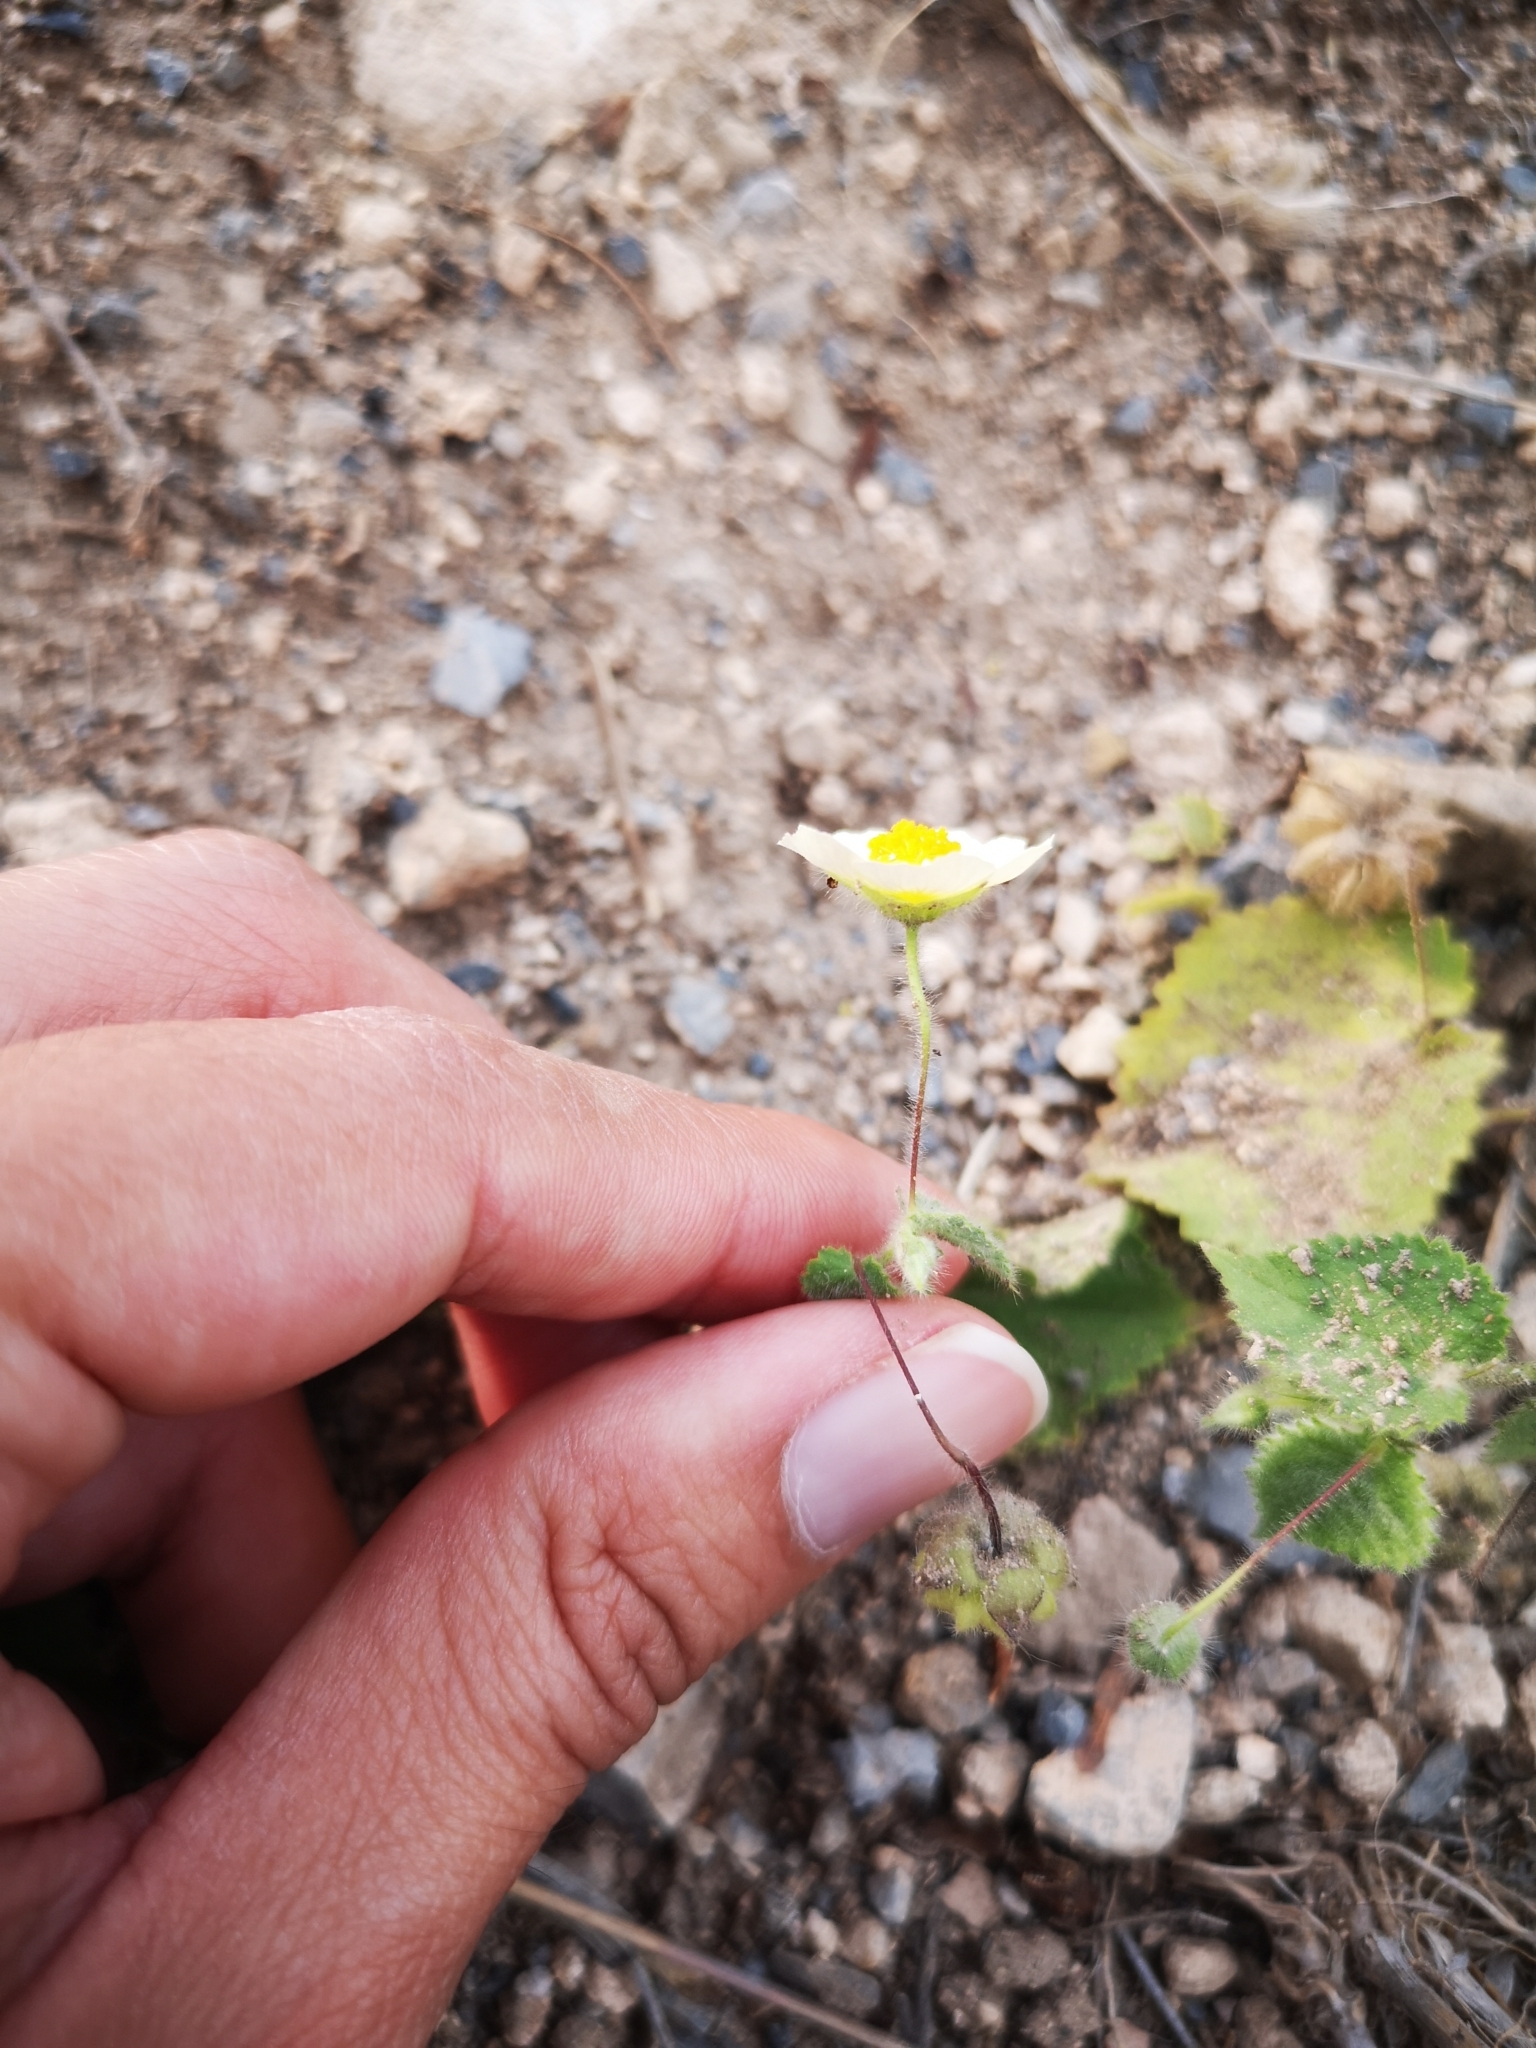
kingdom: Plantae
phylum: Tracheophyta
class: Magnoliopsida
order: Malvales
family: Malvaceae
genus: Herissantia
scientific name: Herissantia crispa
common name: Bladdermallow
